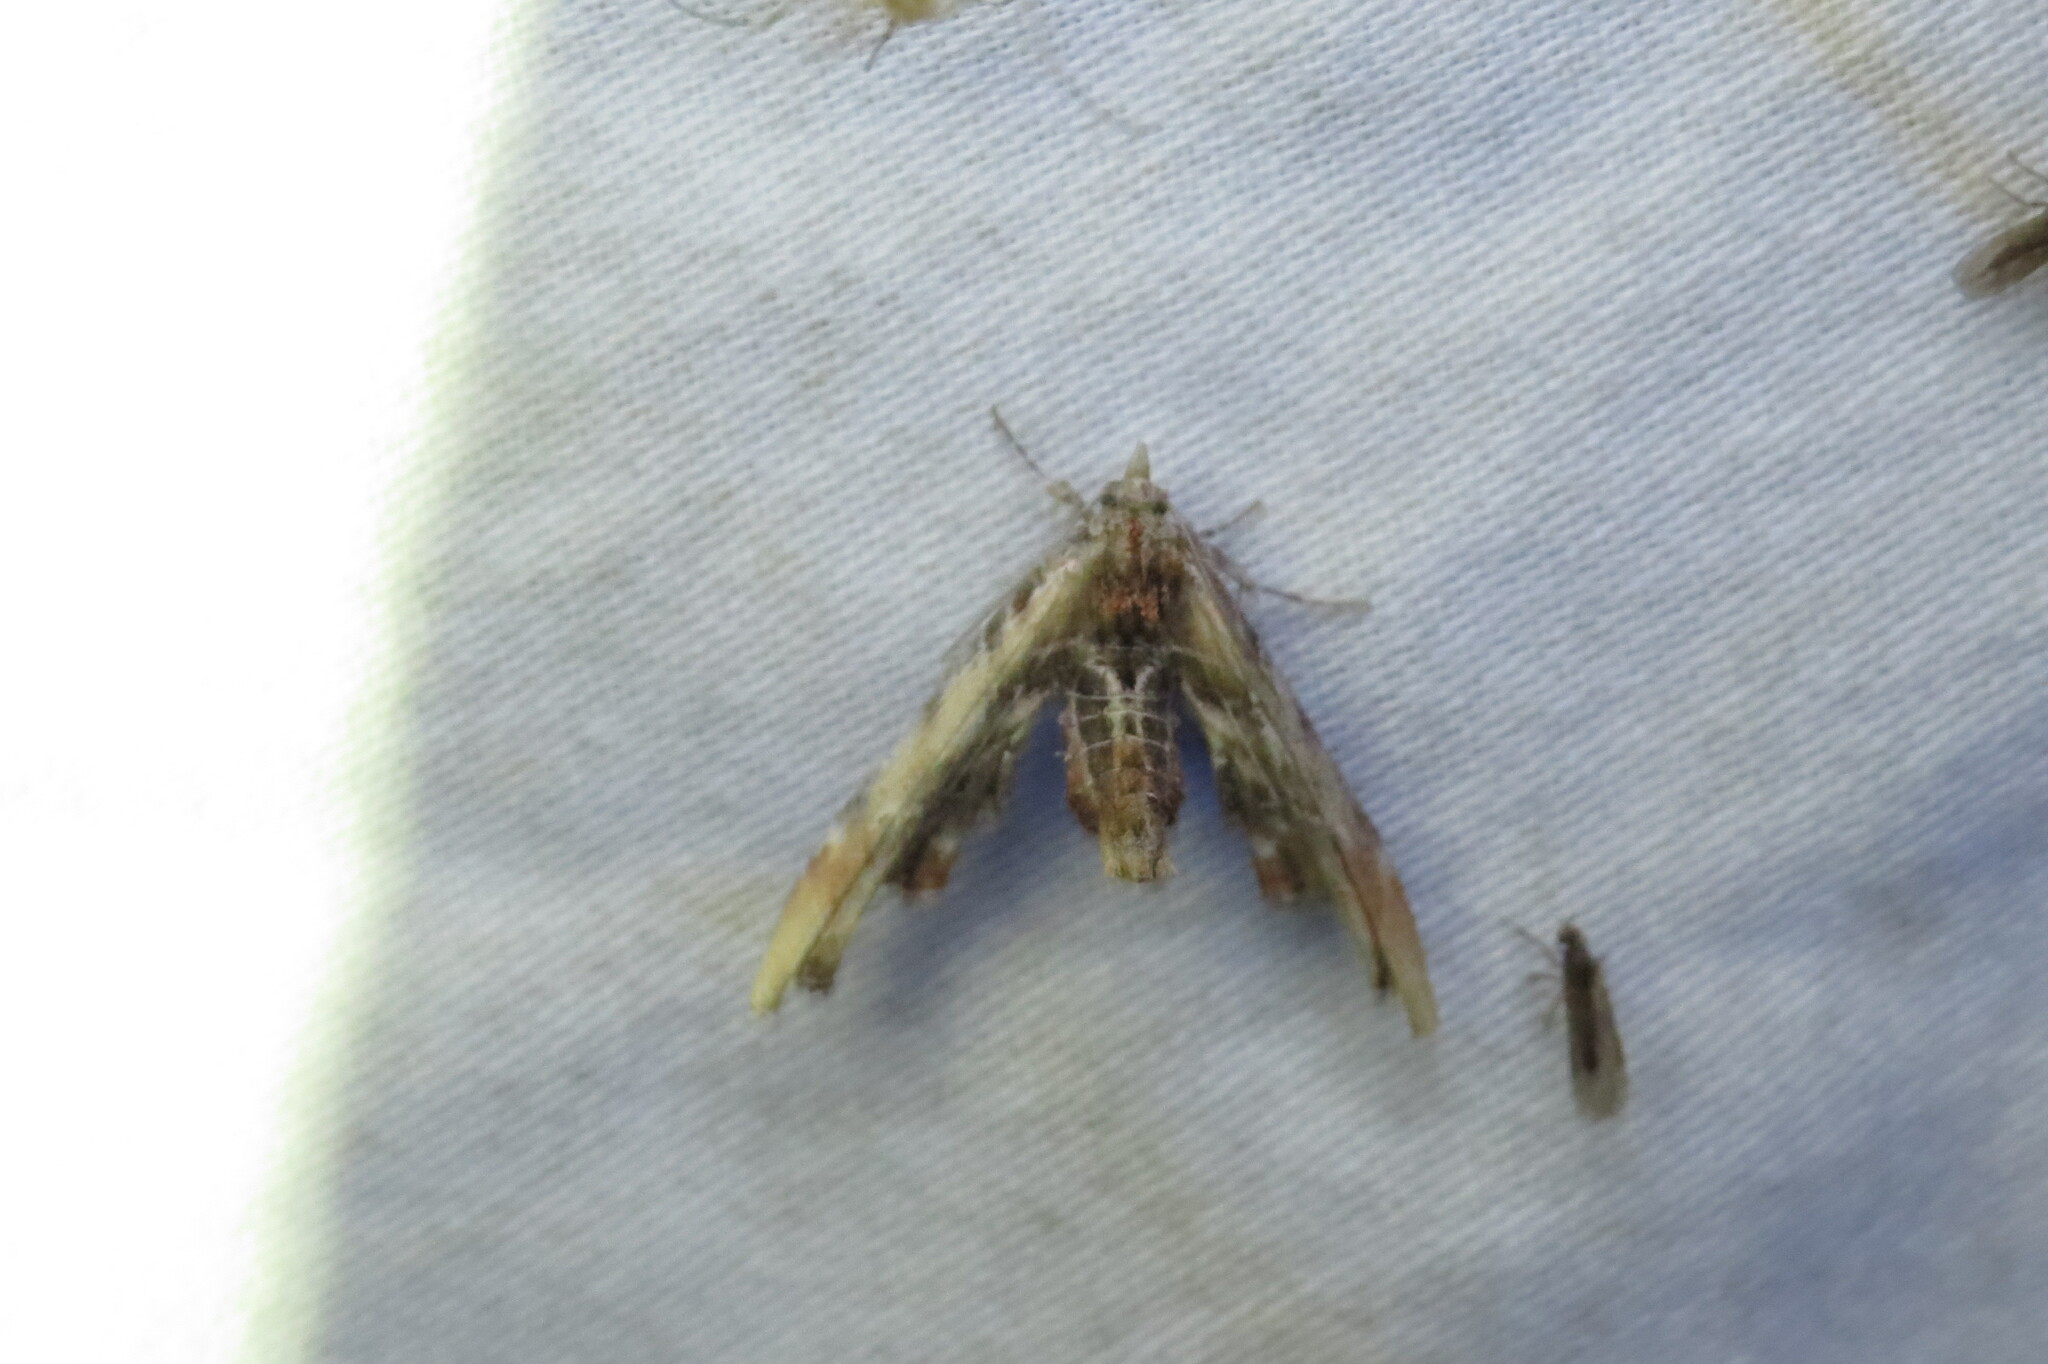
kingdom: Animalia
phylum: Arthropoda
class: Insecta
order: Lepidoptera
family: Euteliidae
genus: Marathyssa
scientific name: Marathyssa basalis
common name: Light marathyssa moth
